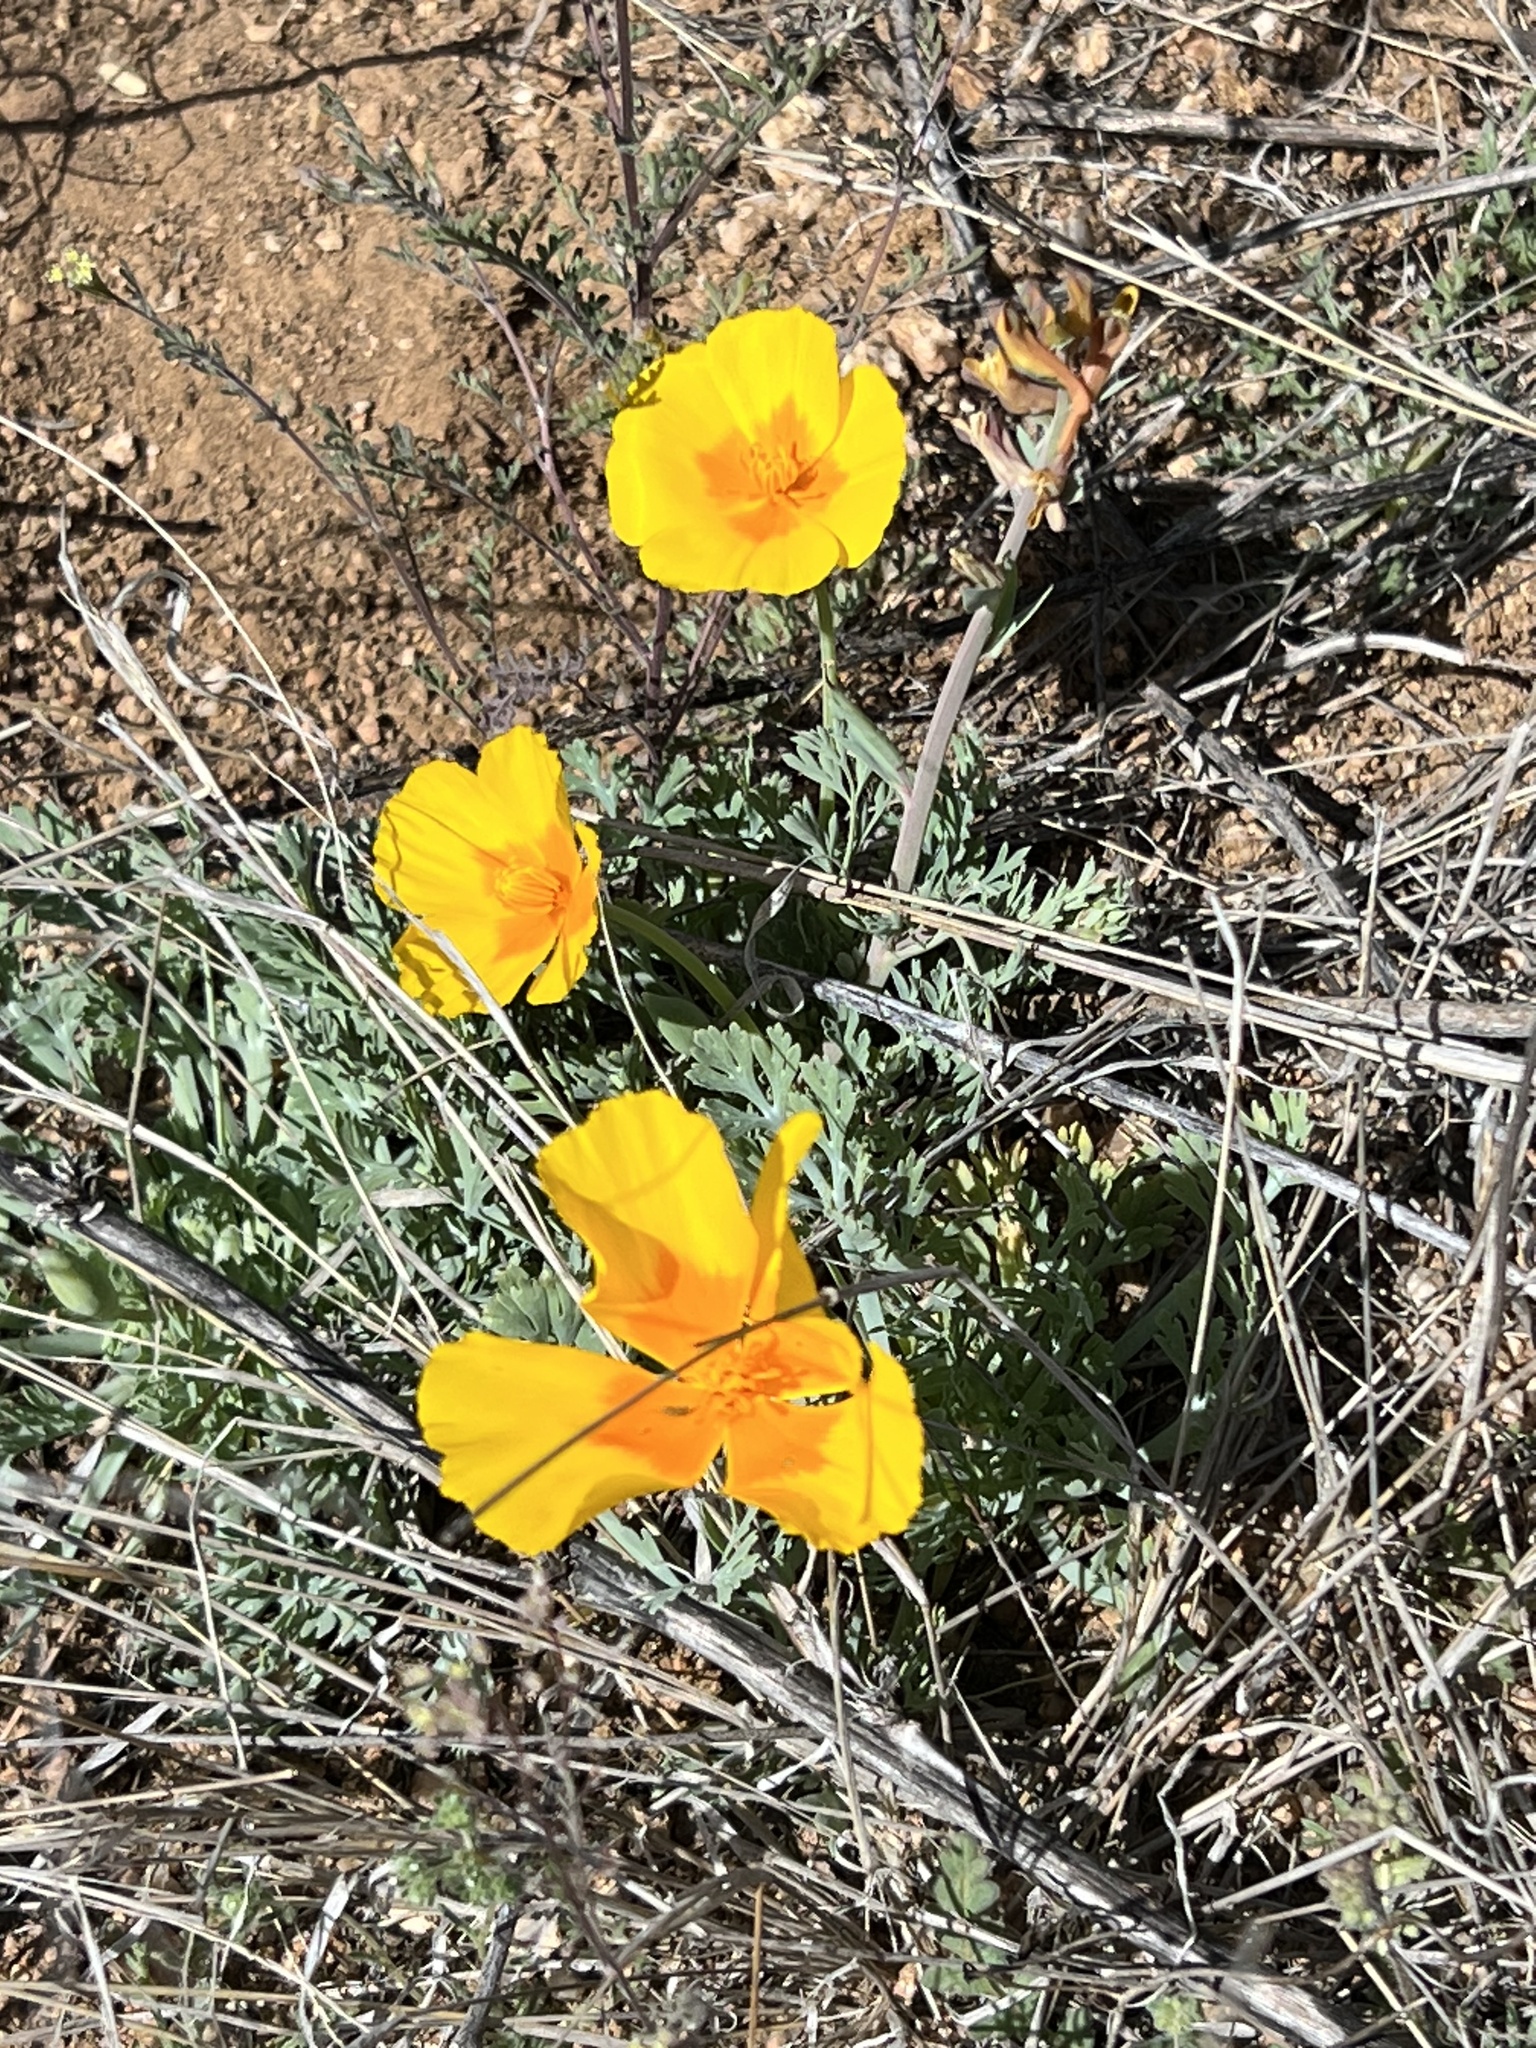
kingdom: Plantae
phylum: Tracheophyta
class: Magnoliopsida
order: Ranunculales
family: Papaveraceae
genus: Eschscholzia
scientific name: Eschscholzia californica
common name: California poppy
